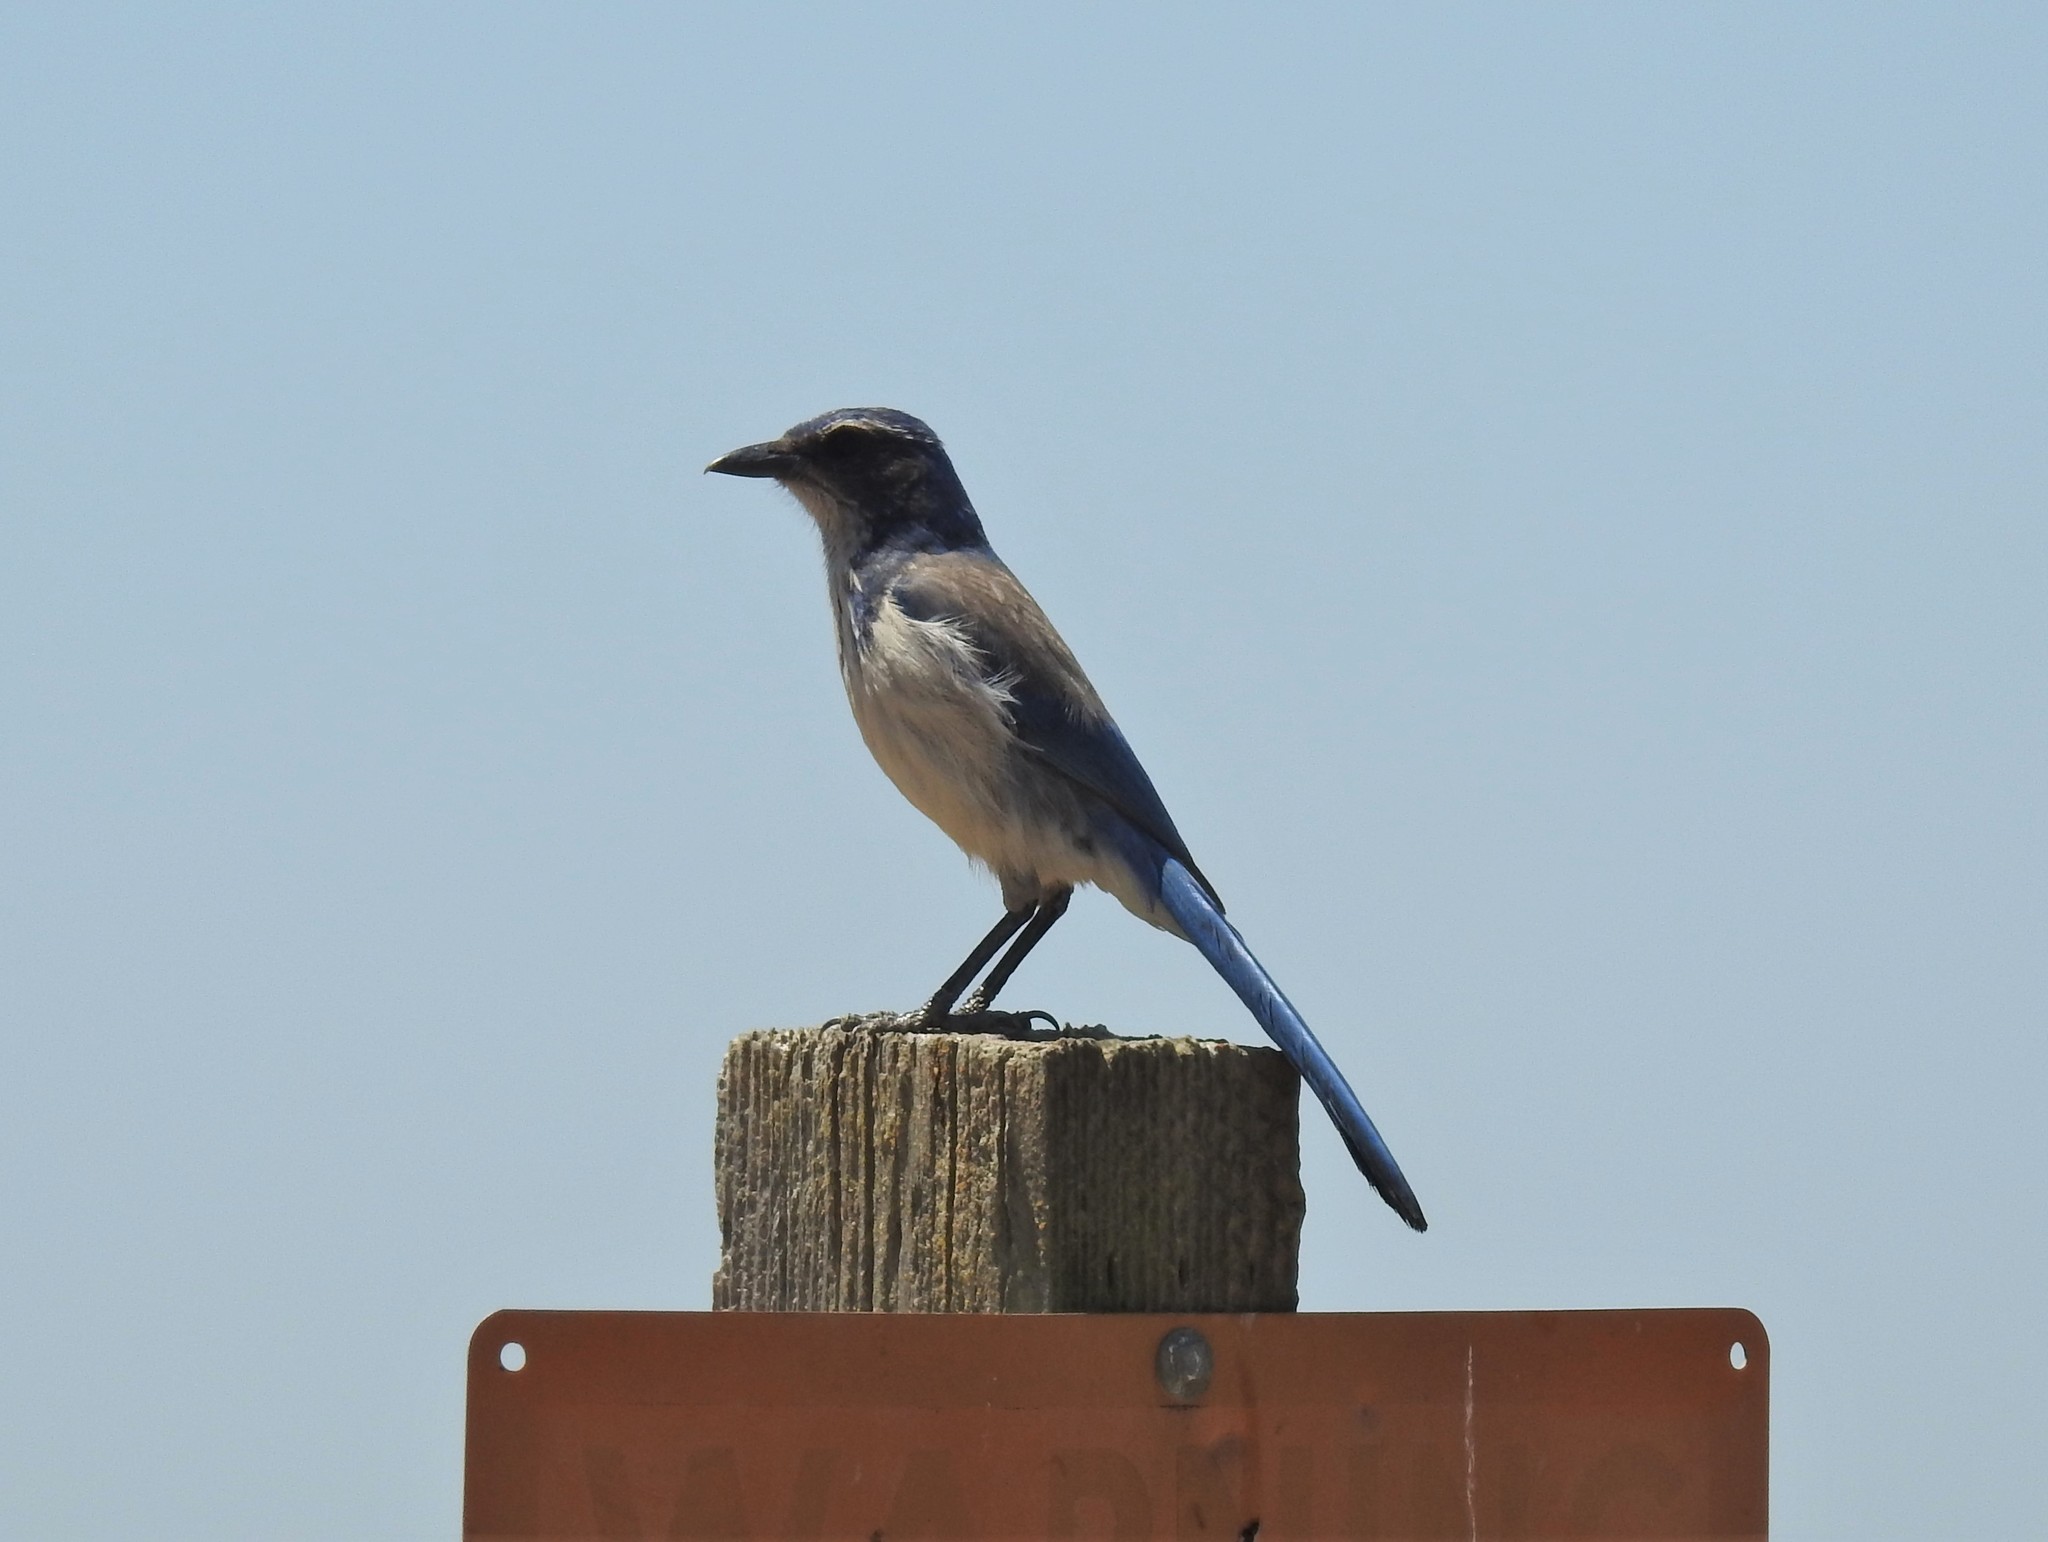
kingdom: Animalia
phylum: Chordata
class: Aves
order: Passeriformes
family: Corvidae
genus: Aphelocoma
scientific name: Aphelocoma californica
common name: California scrub-jay
